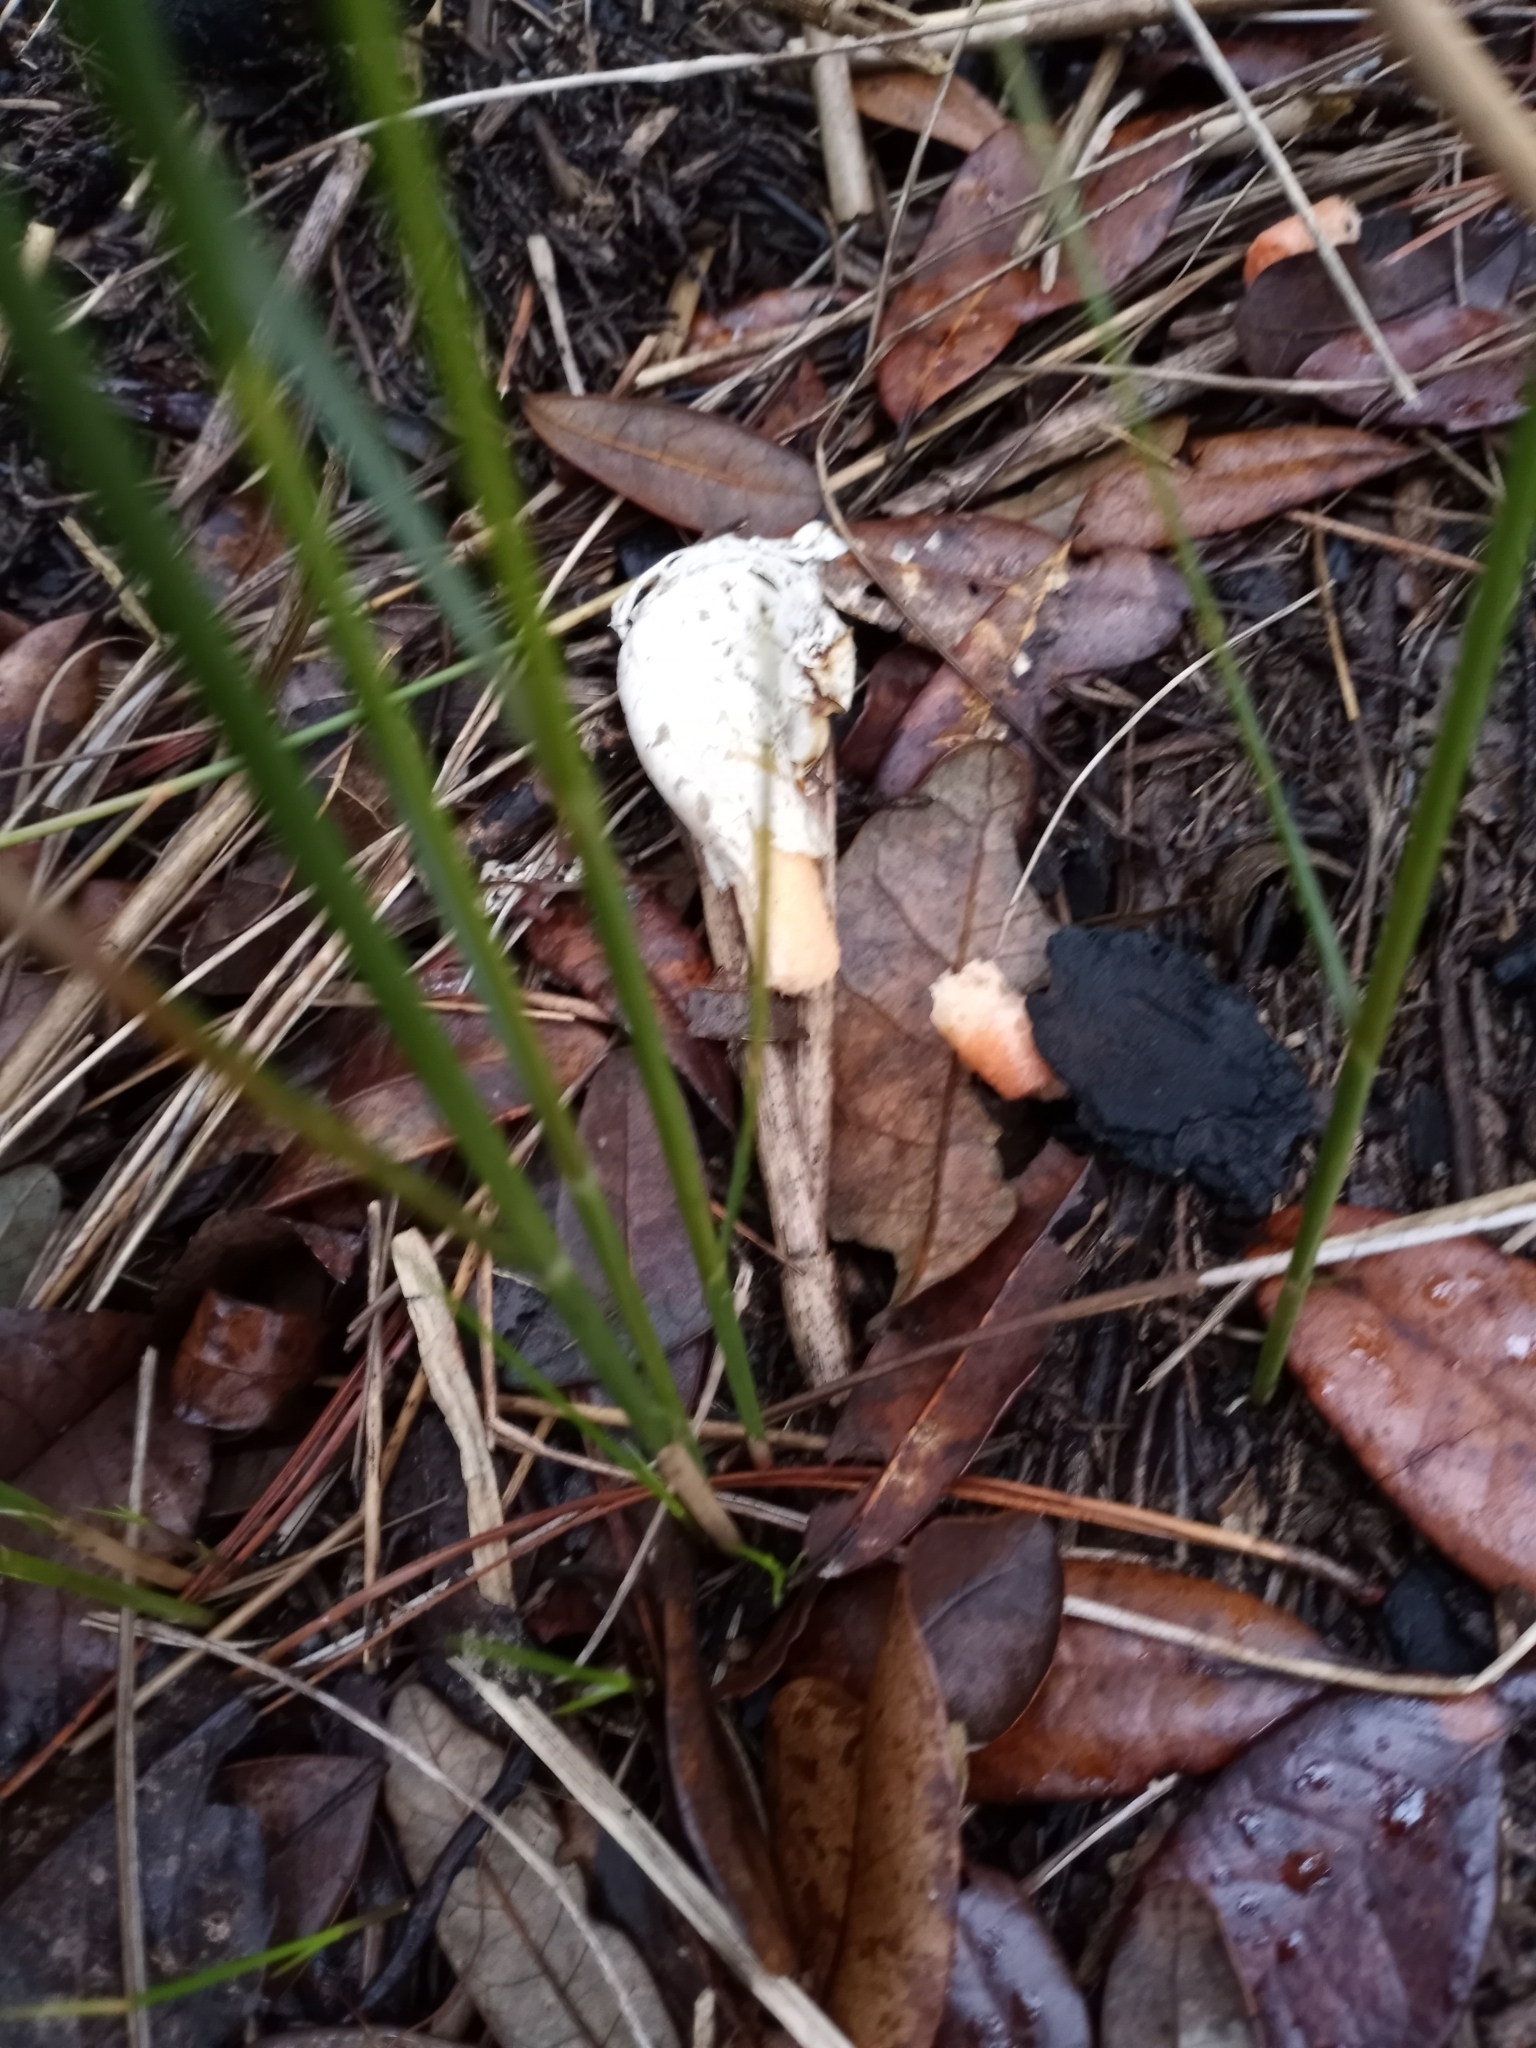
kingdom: Fungi
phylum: Basidiomycota
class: Agaricomycetes
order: Phallales
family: Phallaceae
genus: Clathrus
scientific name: Clathrus columnatus
